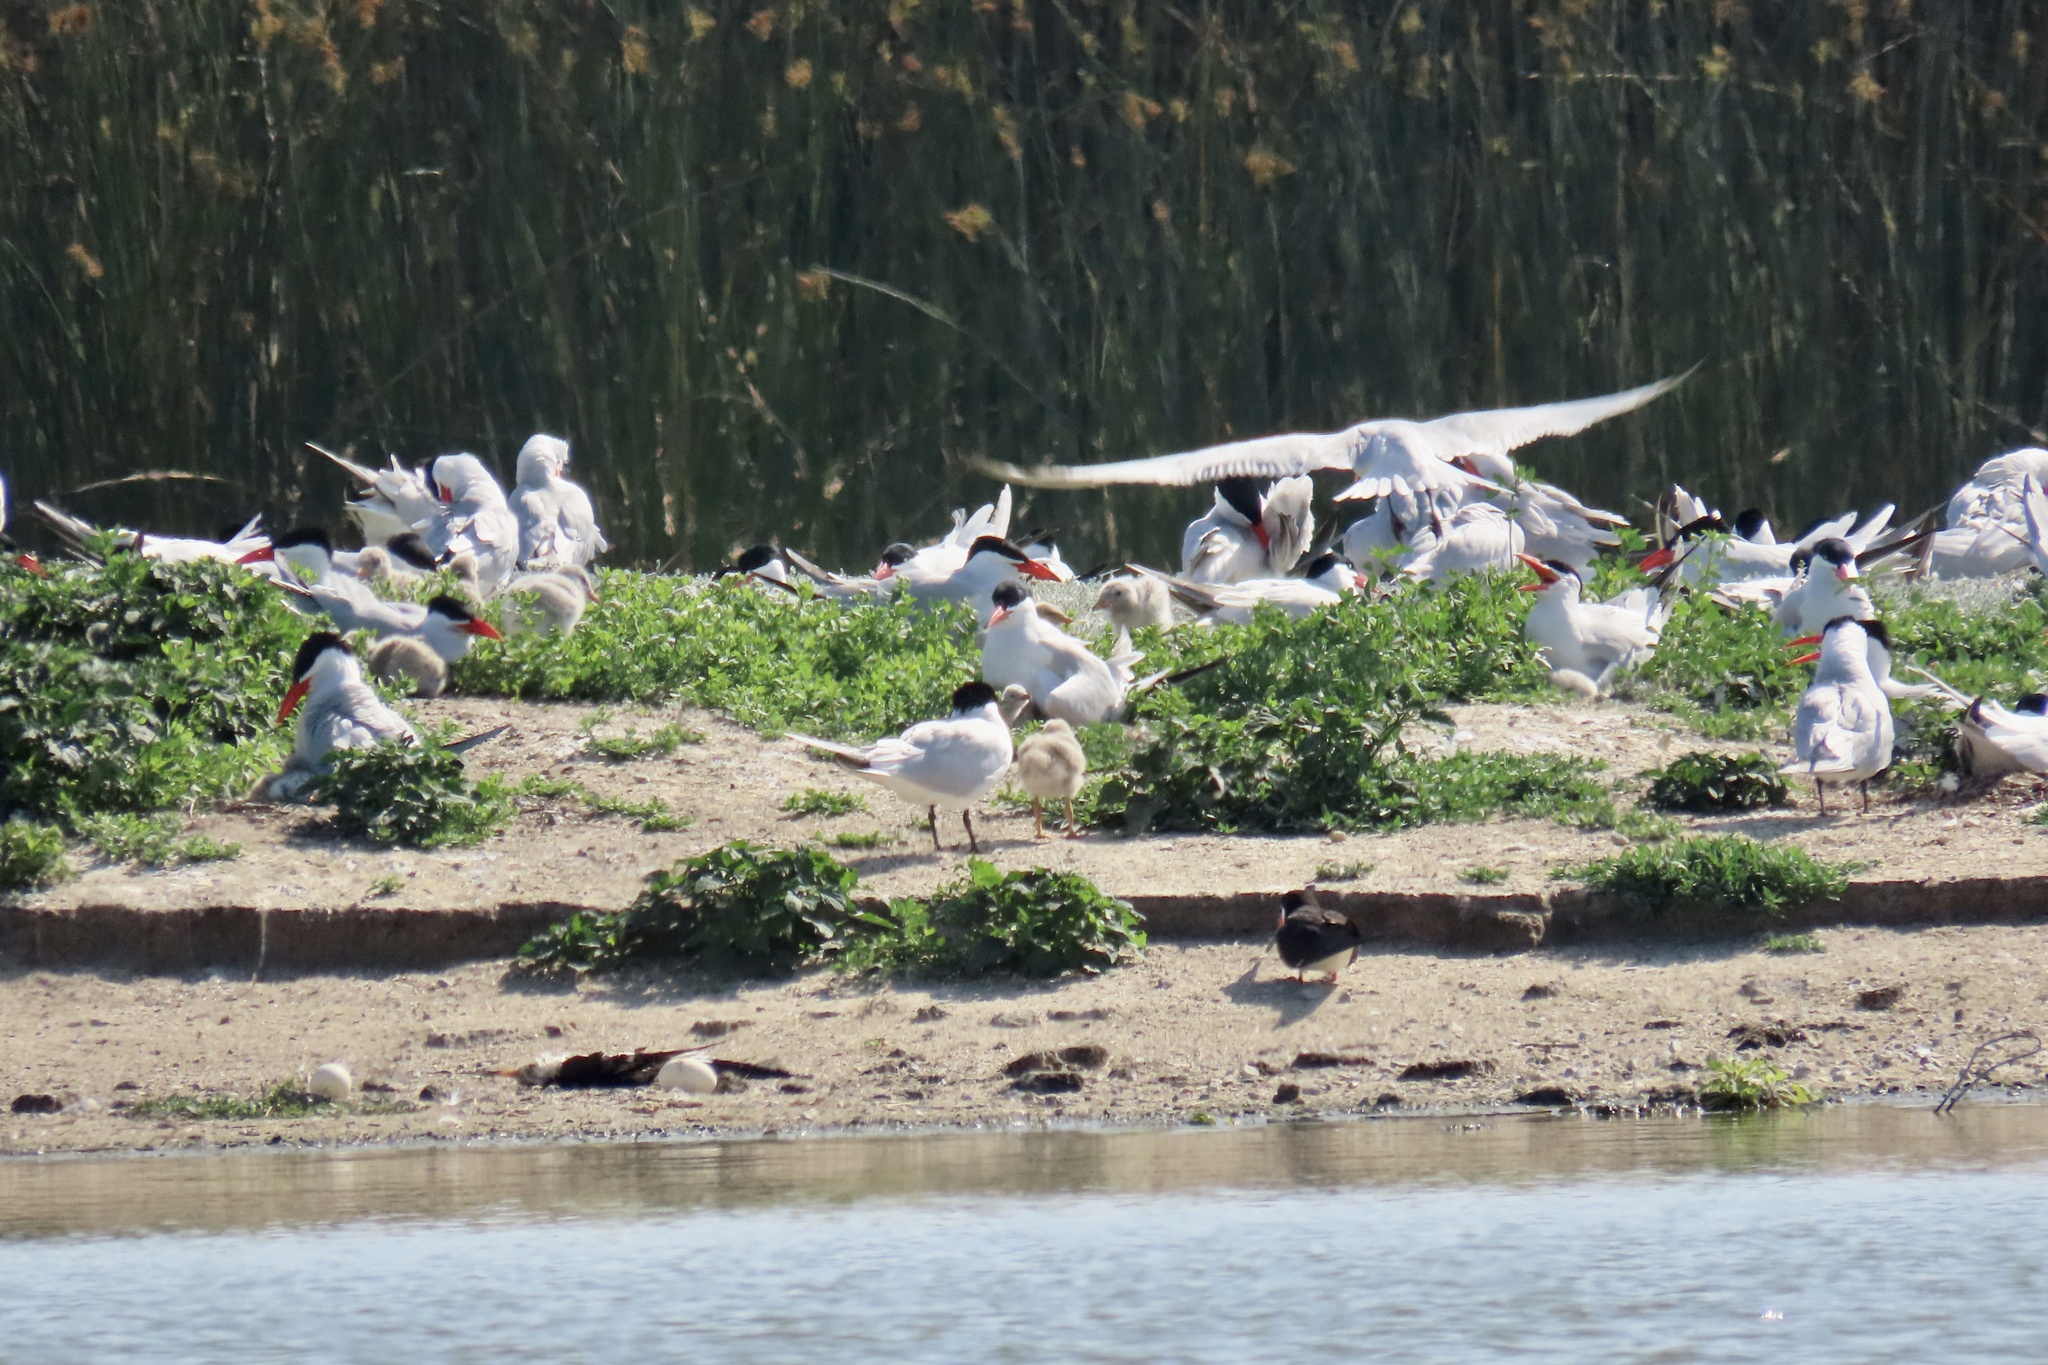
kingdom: Animalia
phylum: Chordata
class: Aves
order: Charadriiformes
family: Laridae
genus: Hydroprogne
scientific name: Hydroprogne caspia
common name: Caspian tern
